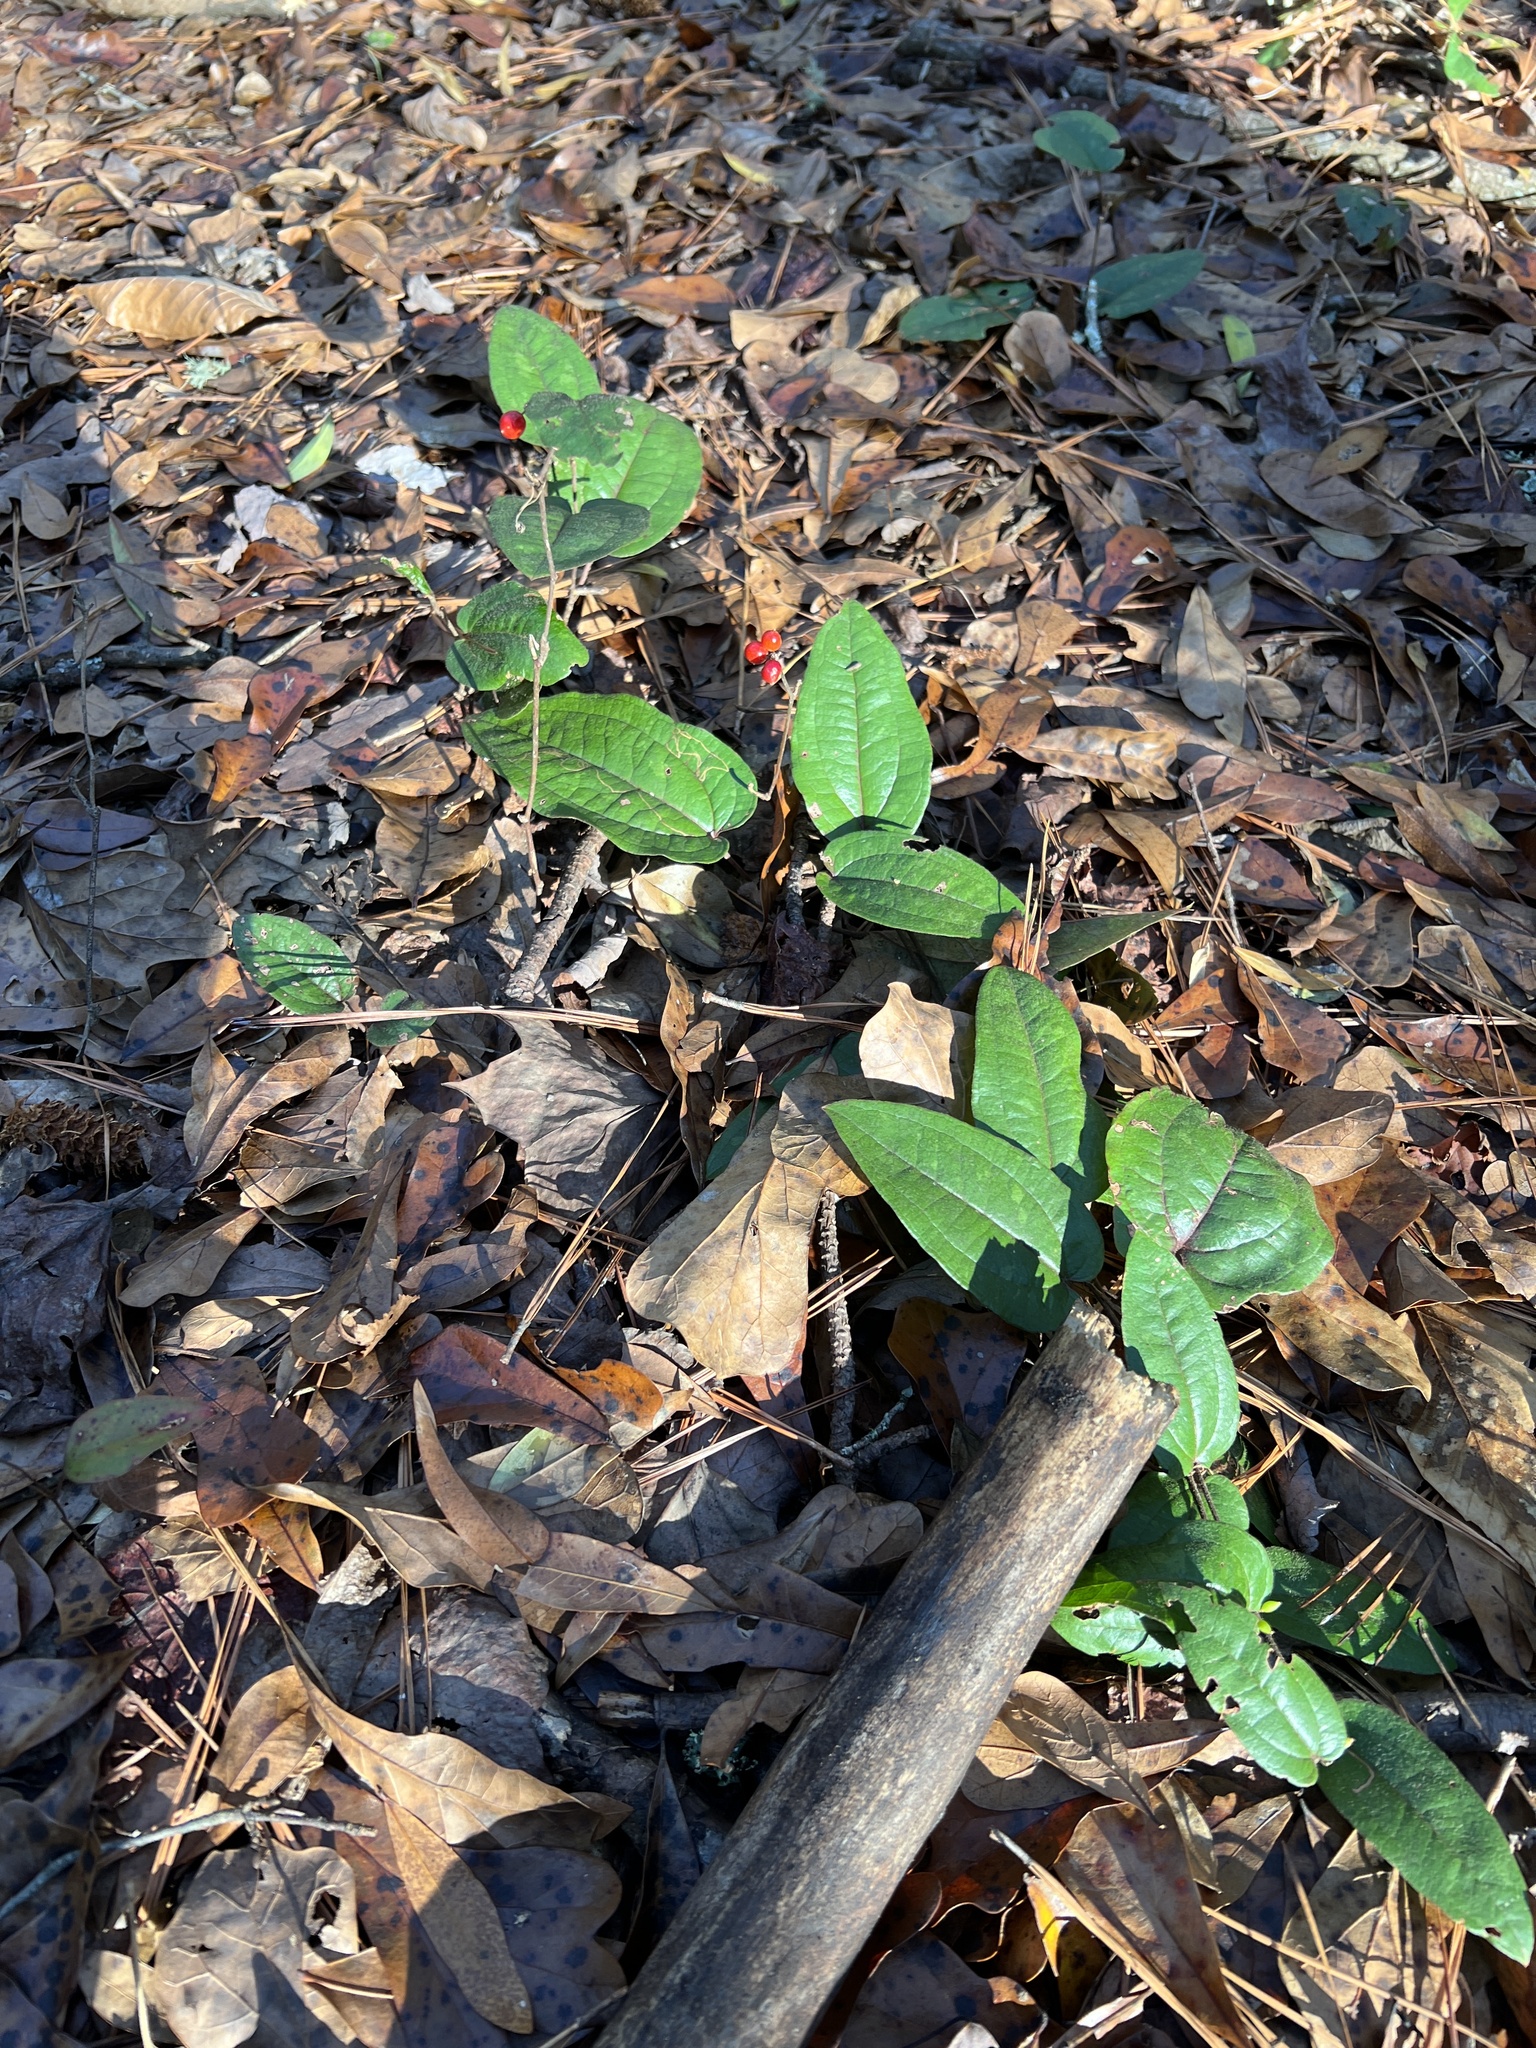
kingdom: Plantae
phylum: Tracheophyta
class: Liliopsida
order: Liliales
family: Smilacaceae
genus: Smilax
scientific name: Smilax pumila
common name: Sarsaparilla-vine
